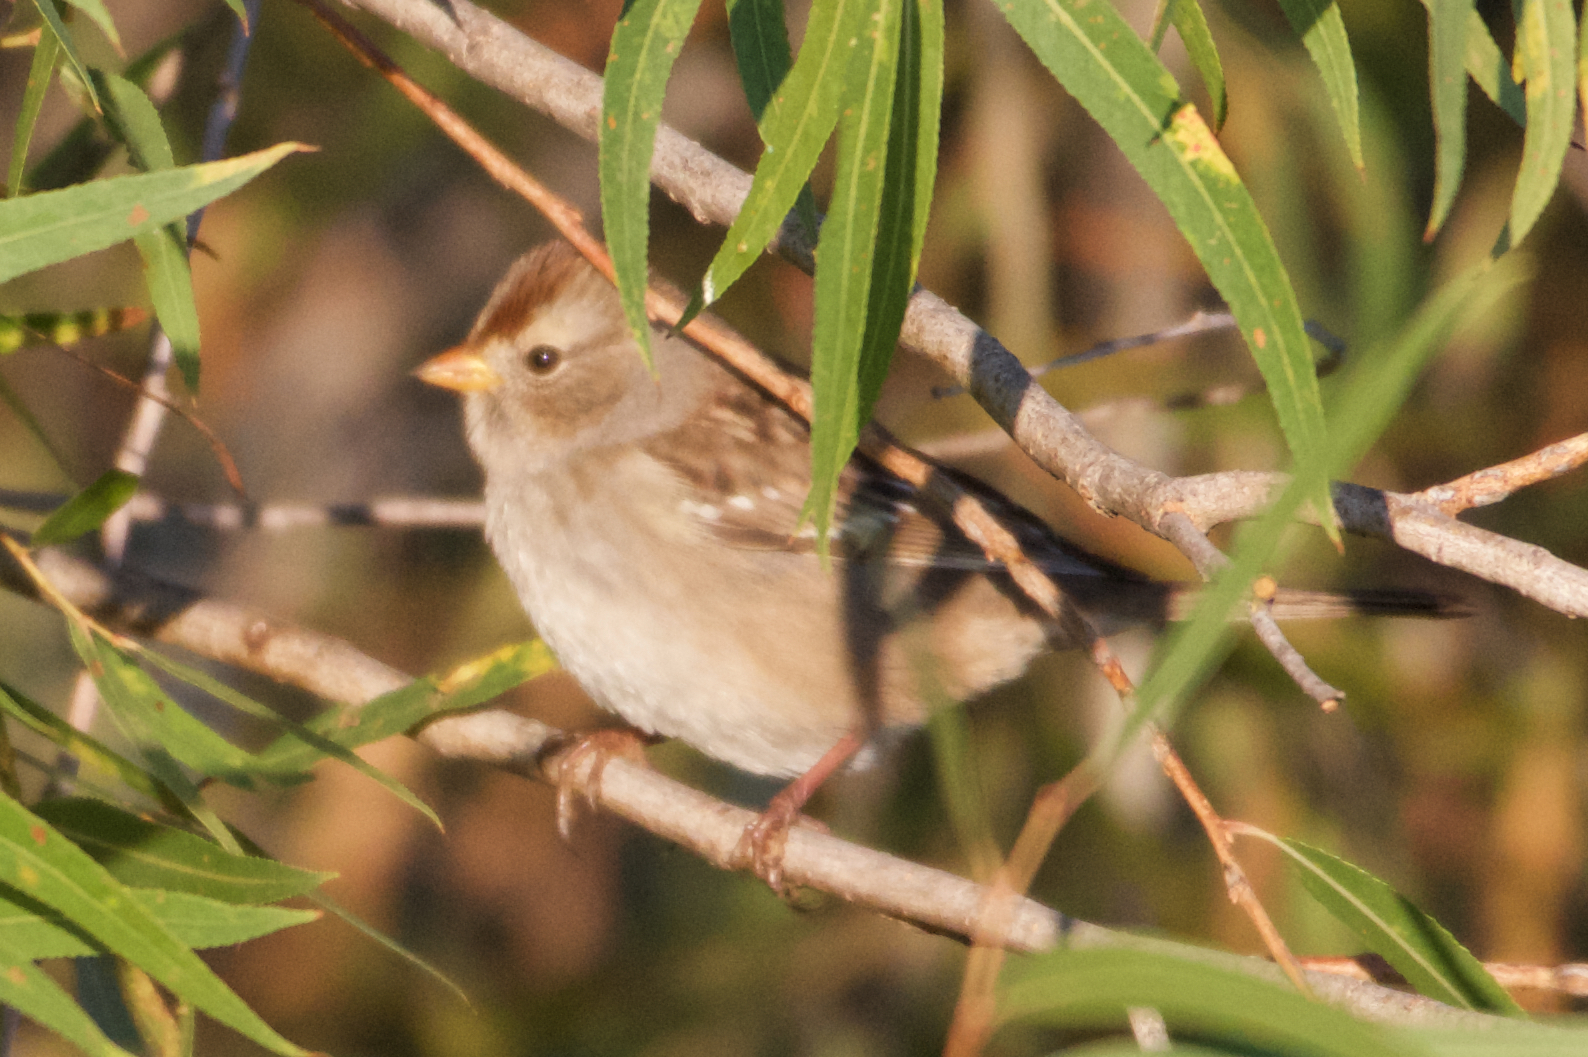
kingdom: Animalia
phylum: Chordata
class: Aves
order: Passeriformes
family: Passerellidae
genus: Zonotrichia
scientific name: Zonotrichia leucophrys
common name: White-crowned sparrow
